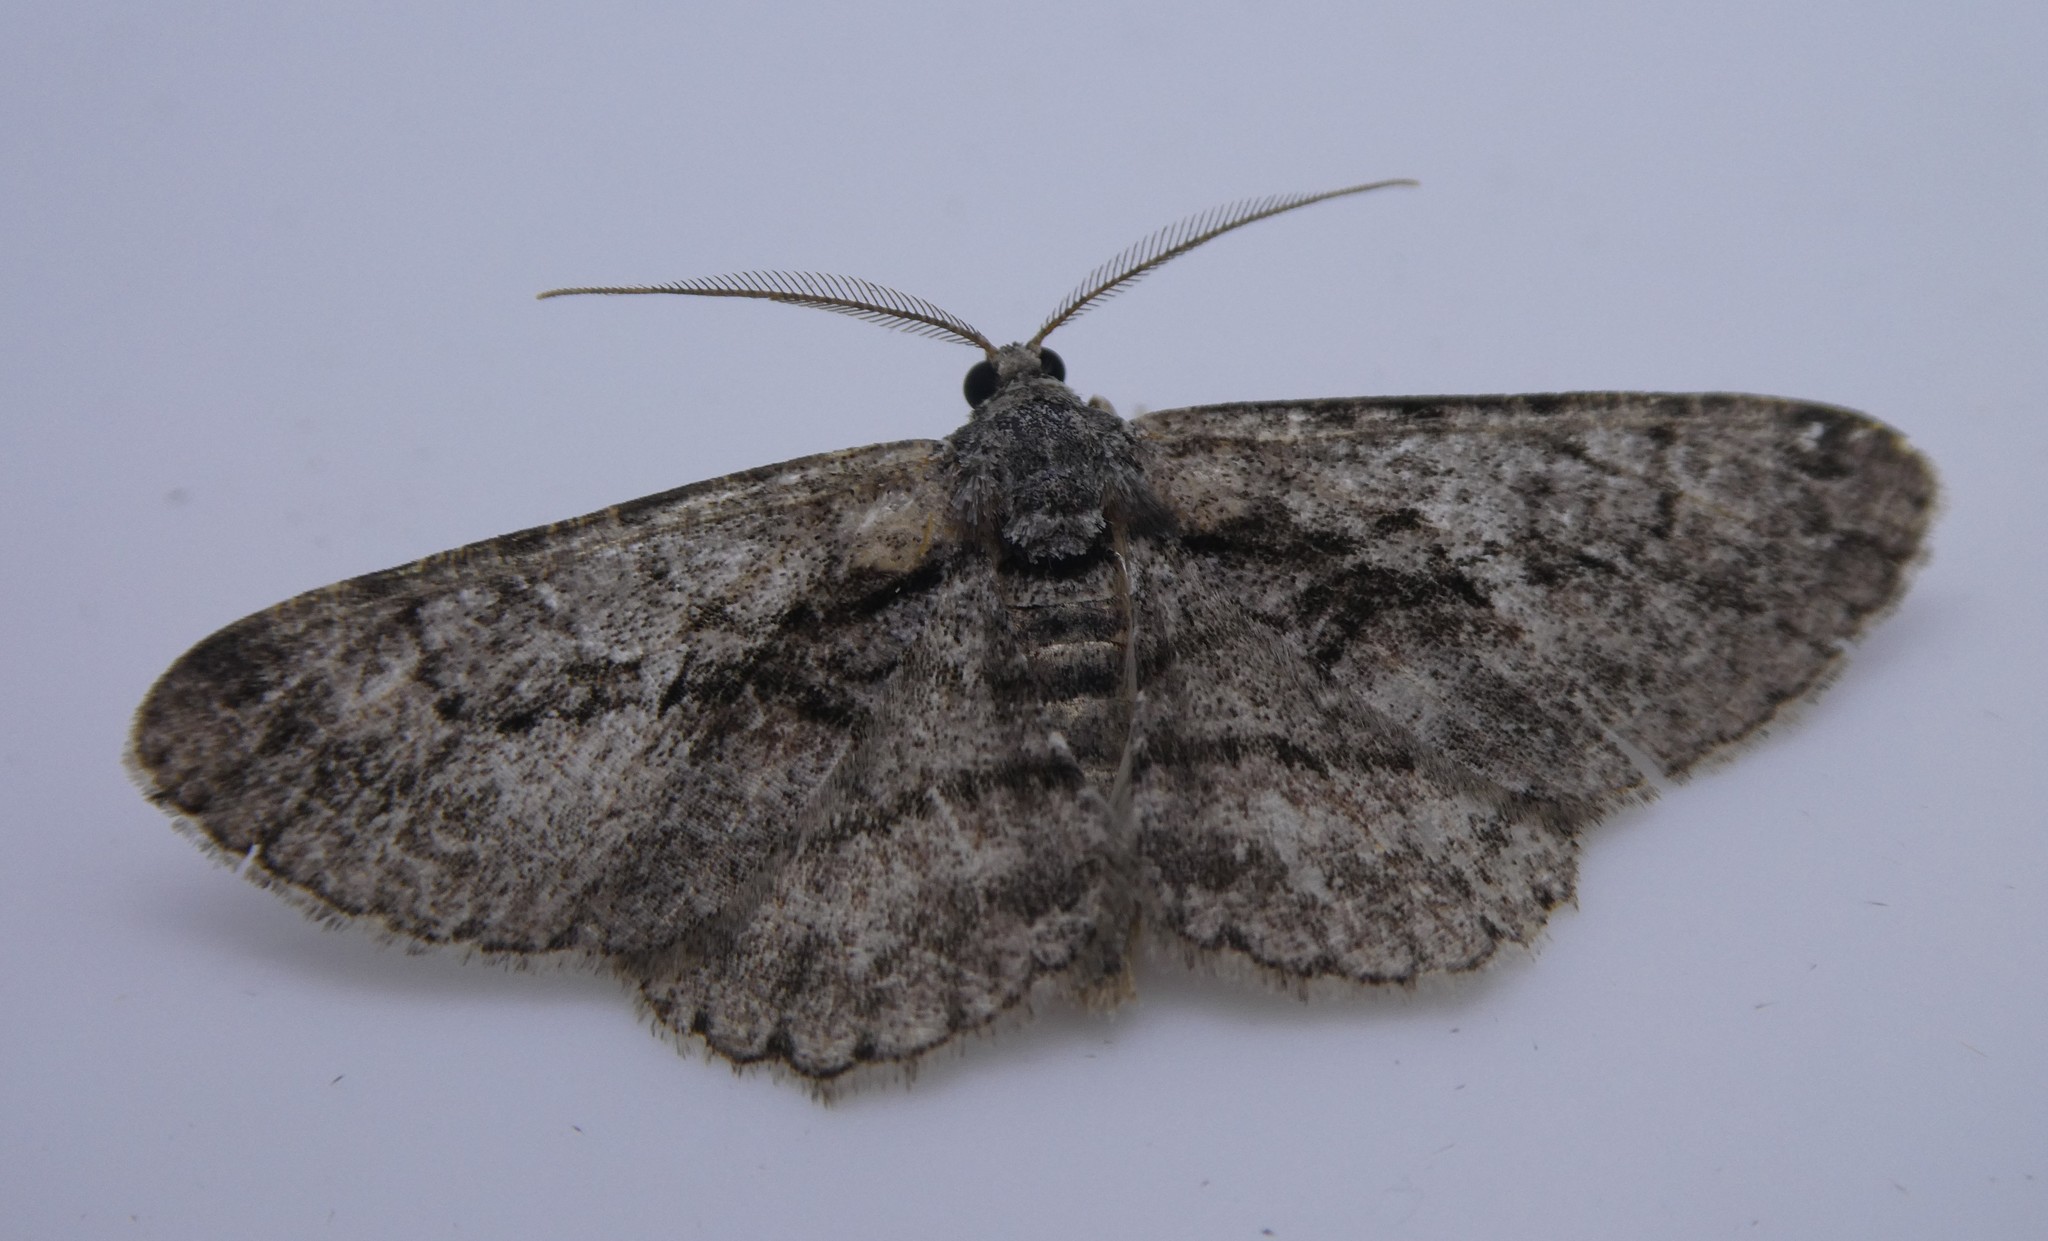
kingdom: Animalia
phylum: Arthropoda
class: Insecta
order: Lepidoptera
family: Geometridae
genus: Anavitrinella
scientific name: Anavitrinella pampinaria
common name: Common gray
